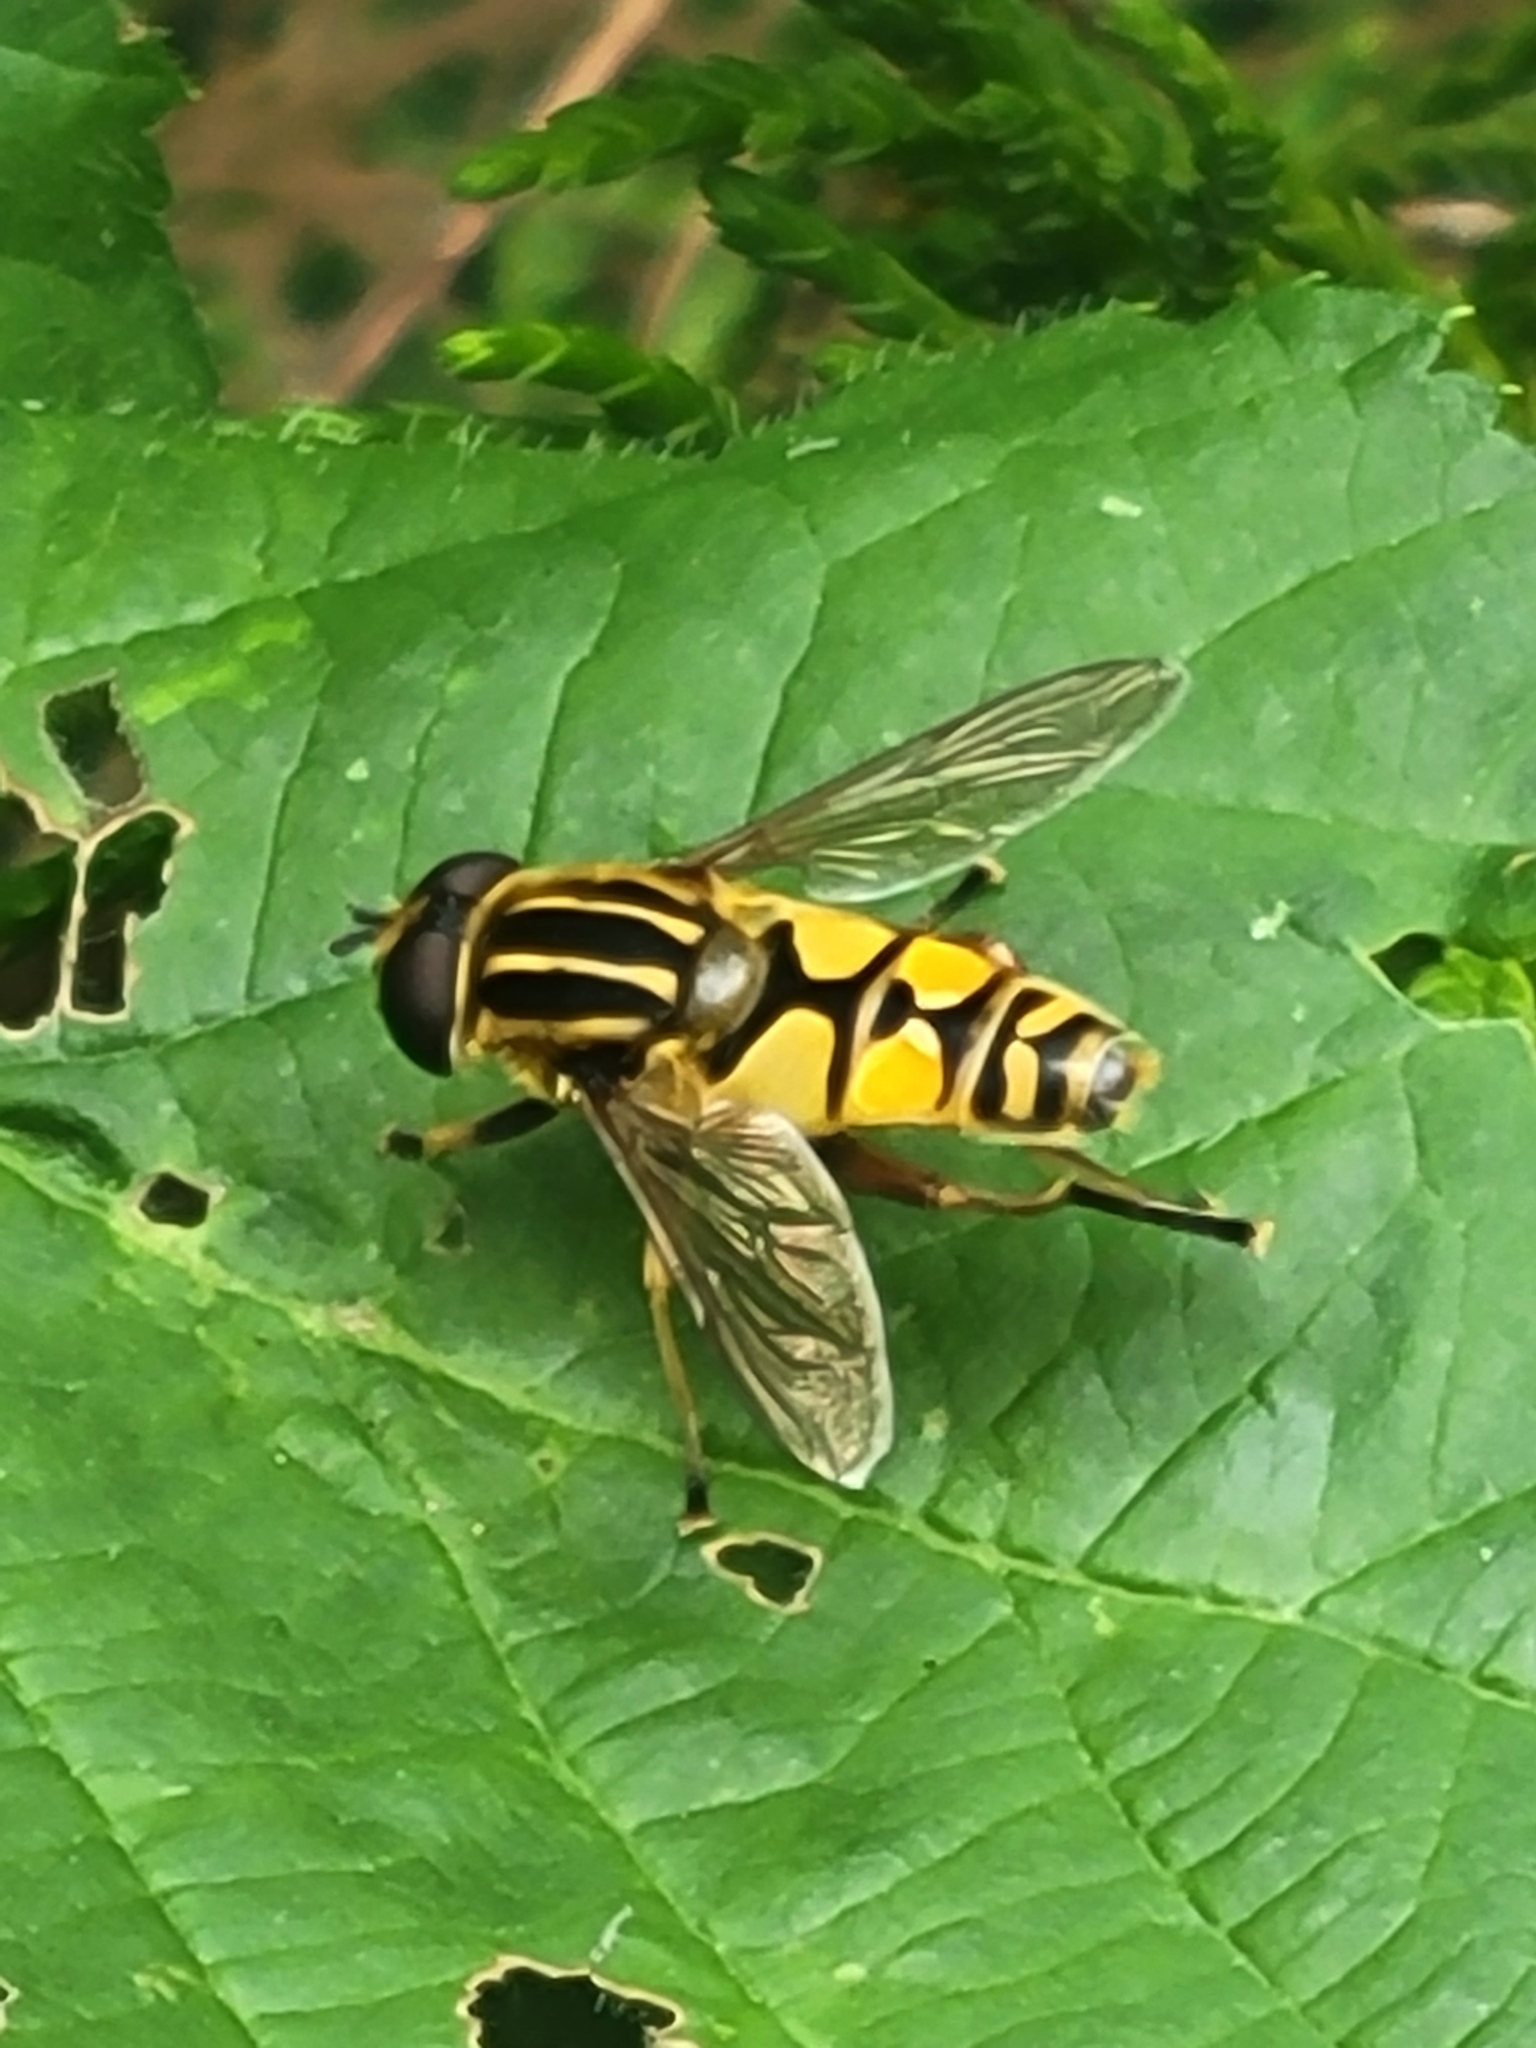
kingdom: Animalia
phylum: Arthropoda
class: Insecta
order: Diptera
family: Syrphidae
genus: Helophilus
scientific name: Helophilus pendulus
